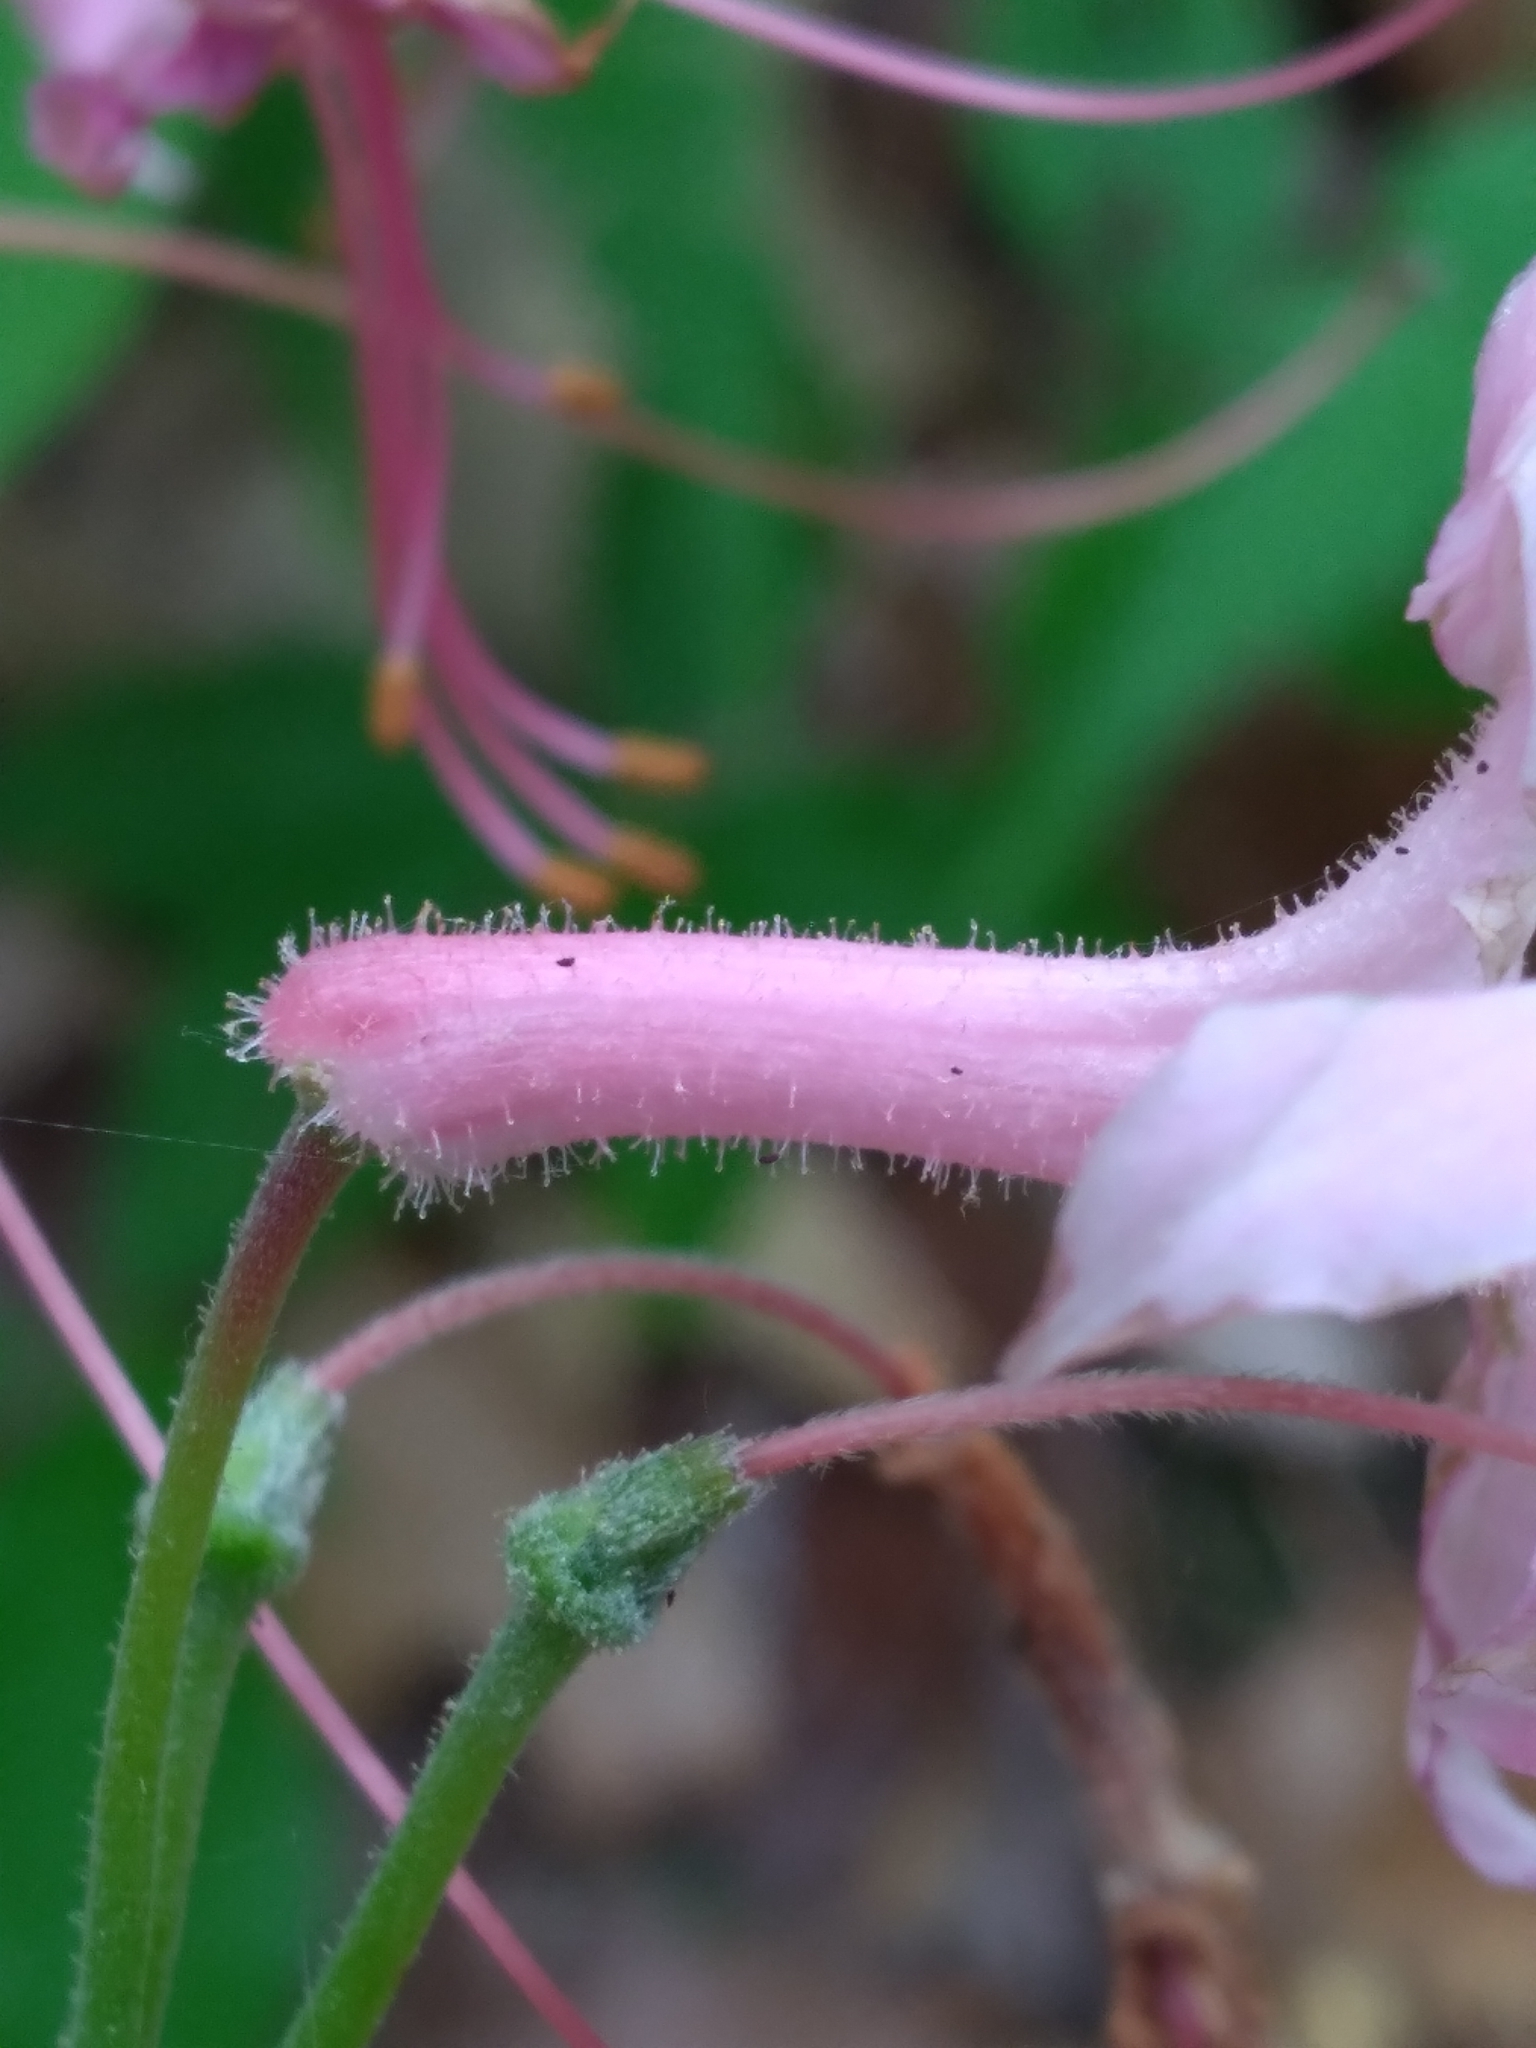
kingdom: Plantae
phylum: Tracheophyta
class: Magnoliopsida
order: Ericales
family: Ericaceae
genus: Rhododendron
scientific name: Rhododendron roseum
